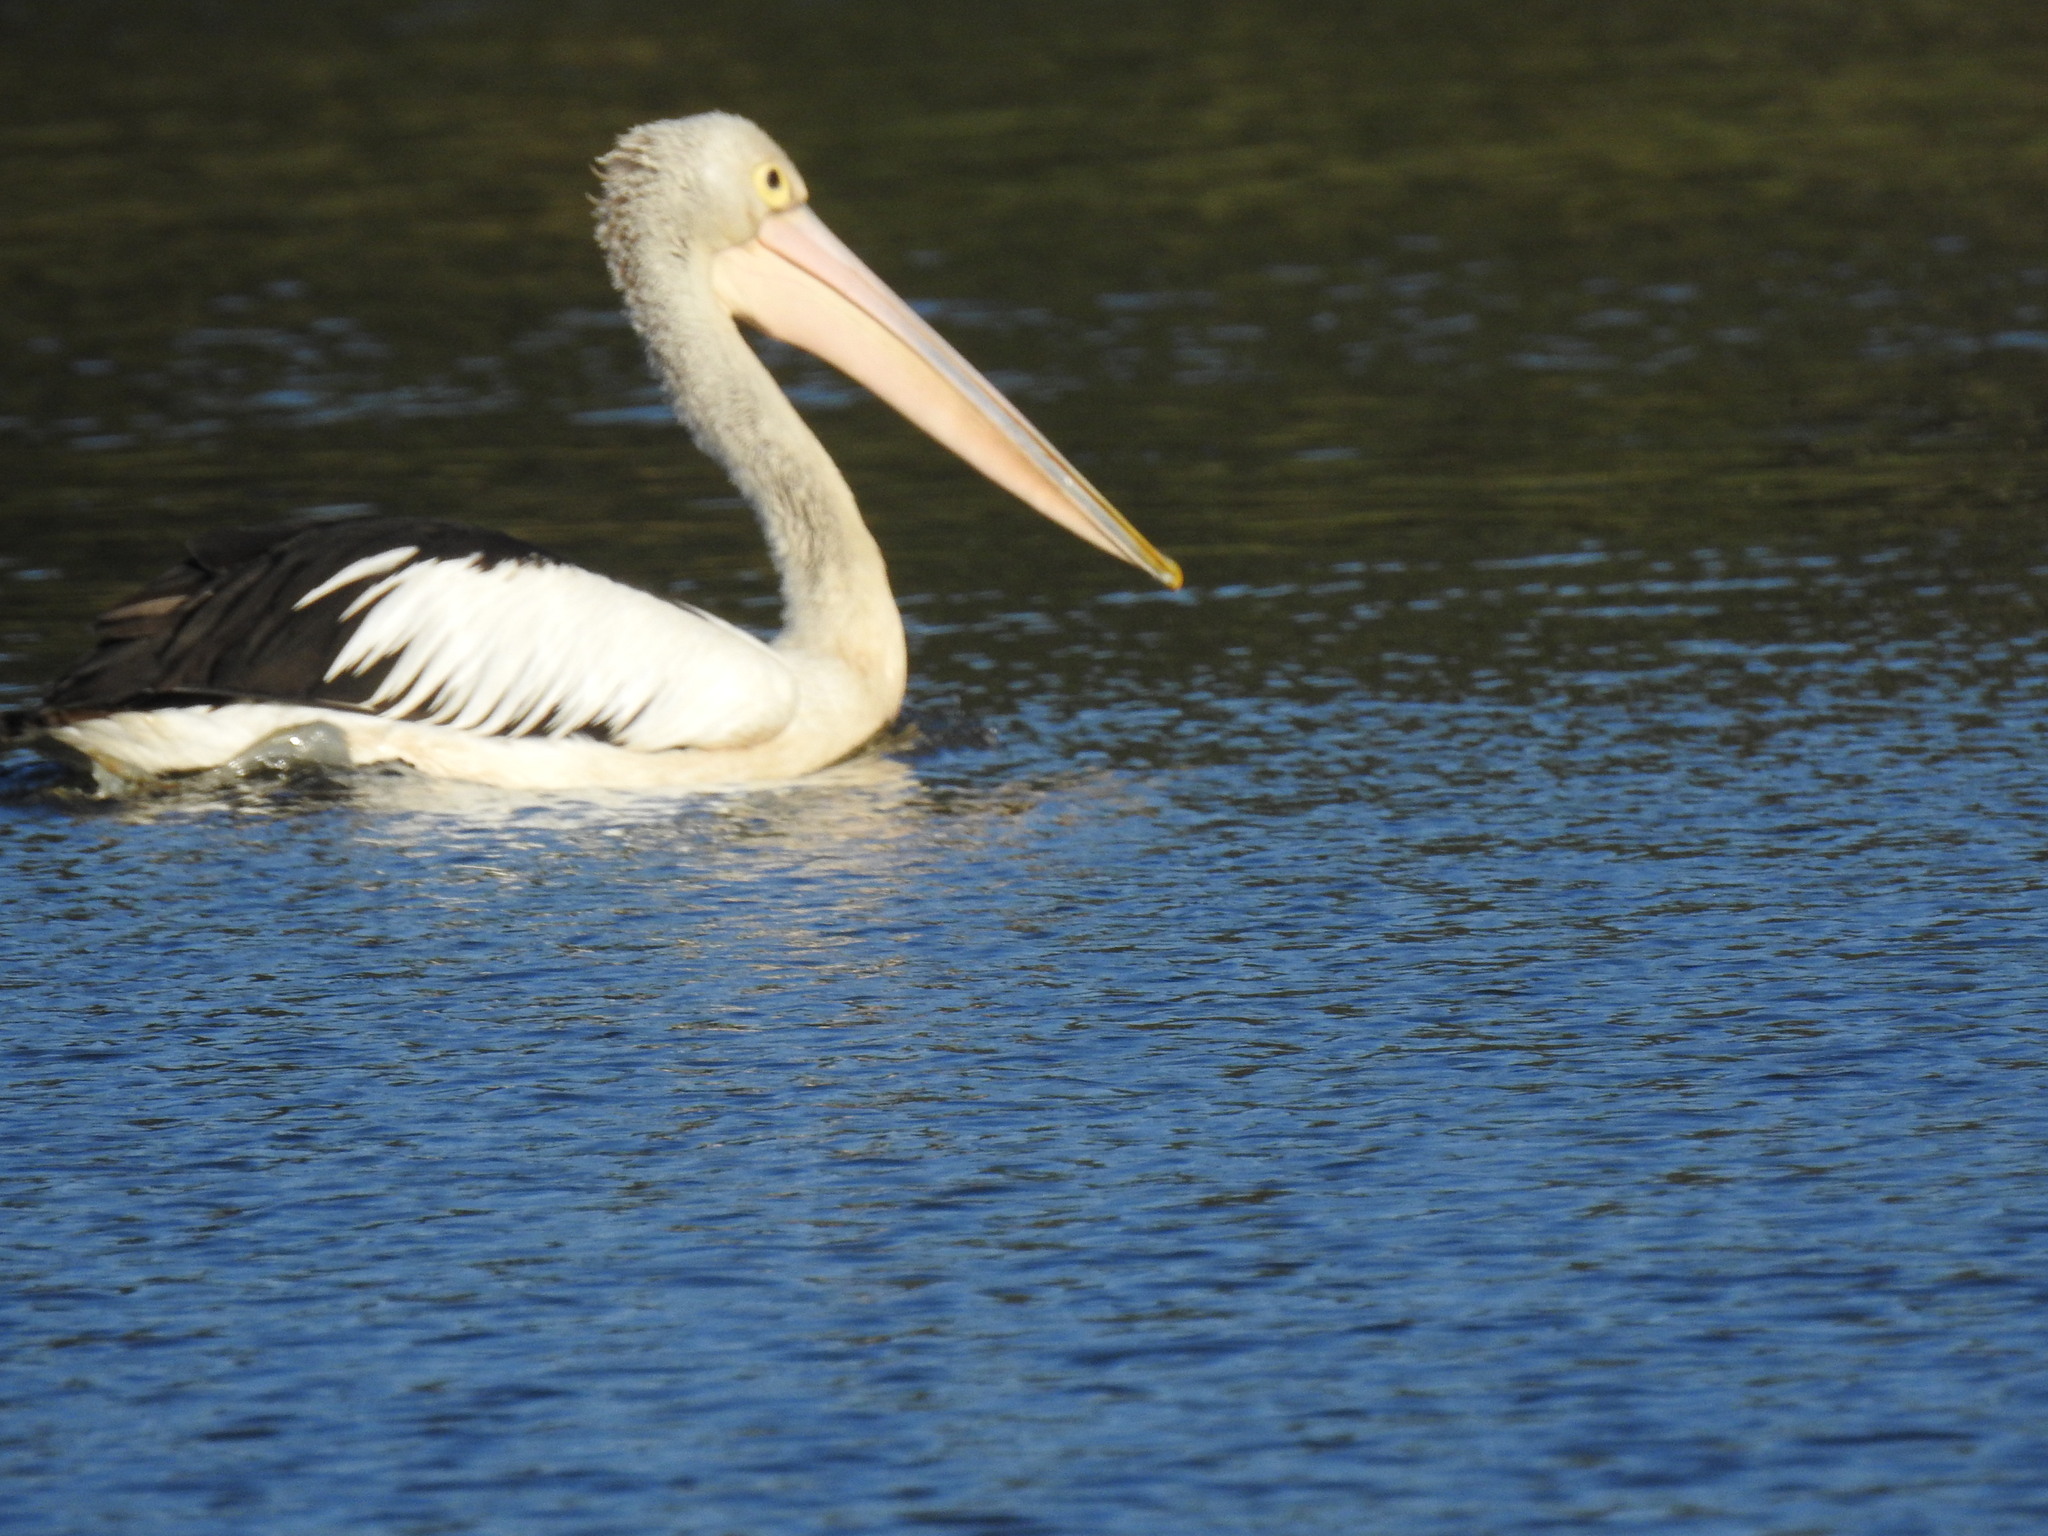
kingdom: Animalia
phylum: Chordata
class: Aves
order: Pelecaniformes
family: Pelecanidae
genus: Pelecanus
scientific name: Pelecanus conspicillatus
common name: Australian pelican
